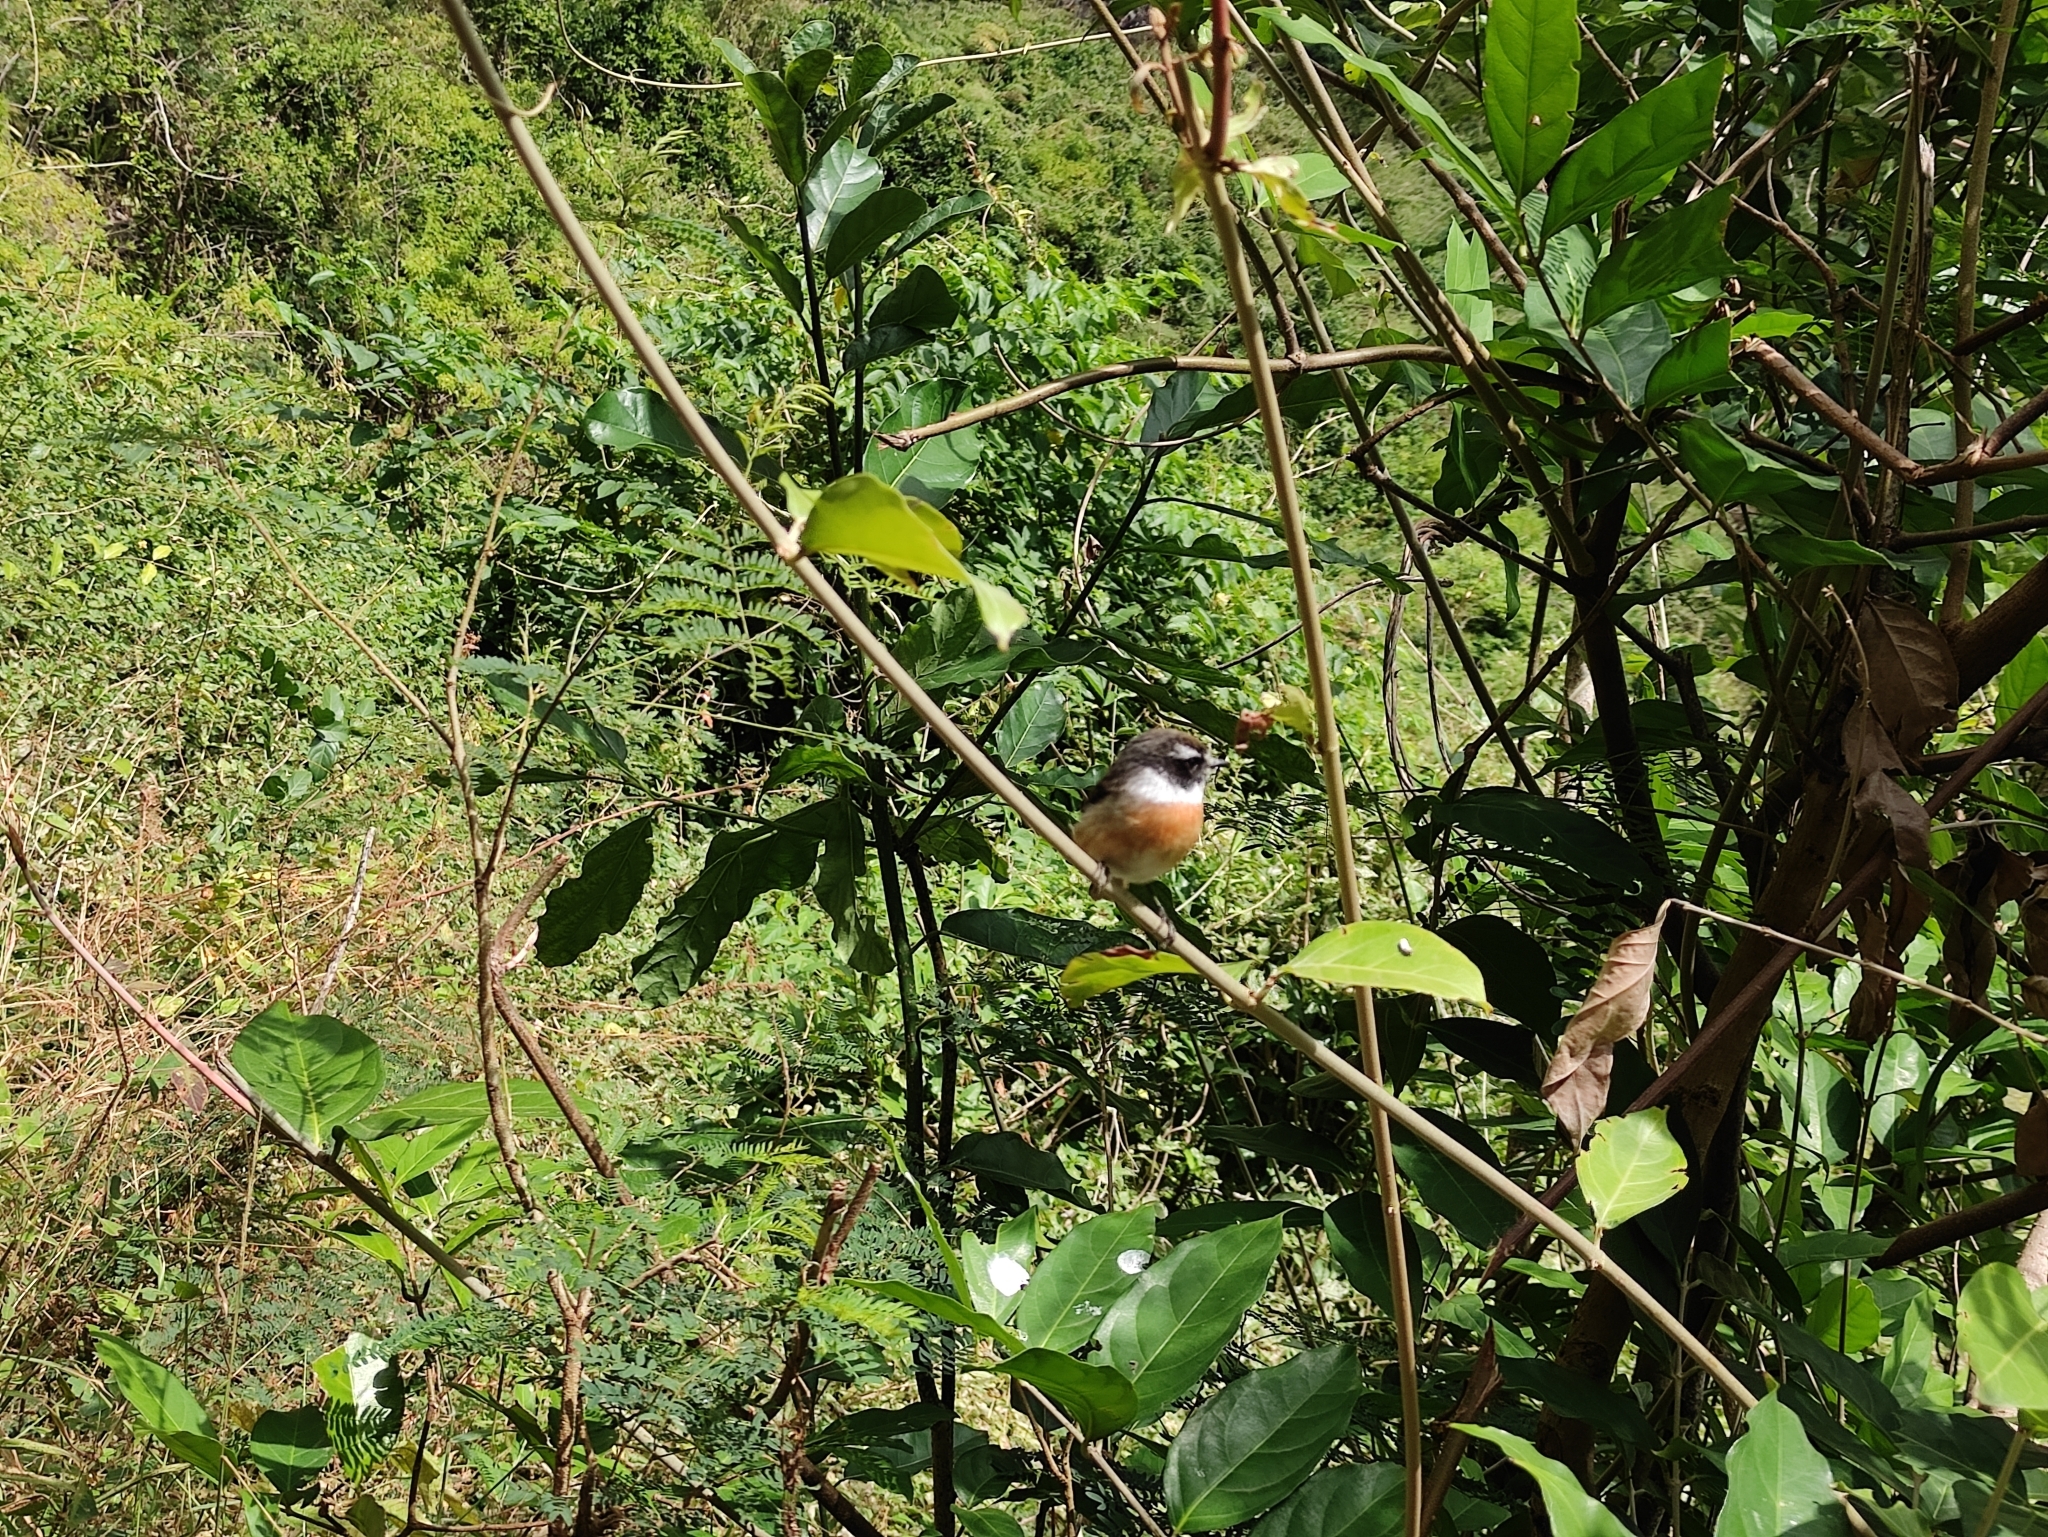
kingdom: Animalia
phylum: Chordata
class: Aves
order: Passeriformes
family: Muscicapidae
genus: Saxicola
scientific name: Saxicola tectes
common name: Reunion stonechat
